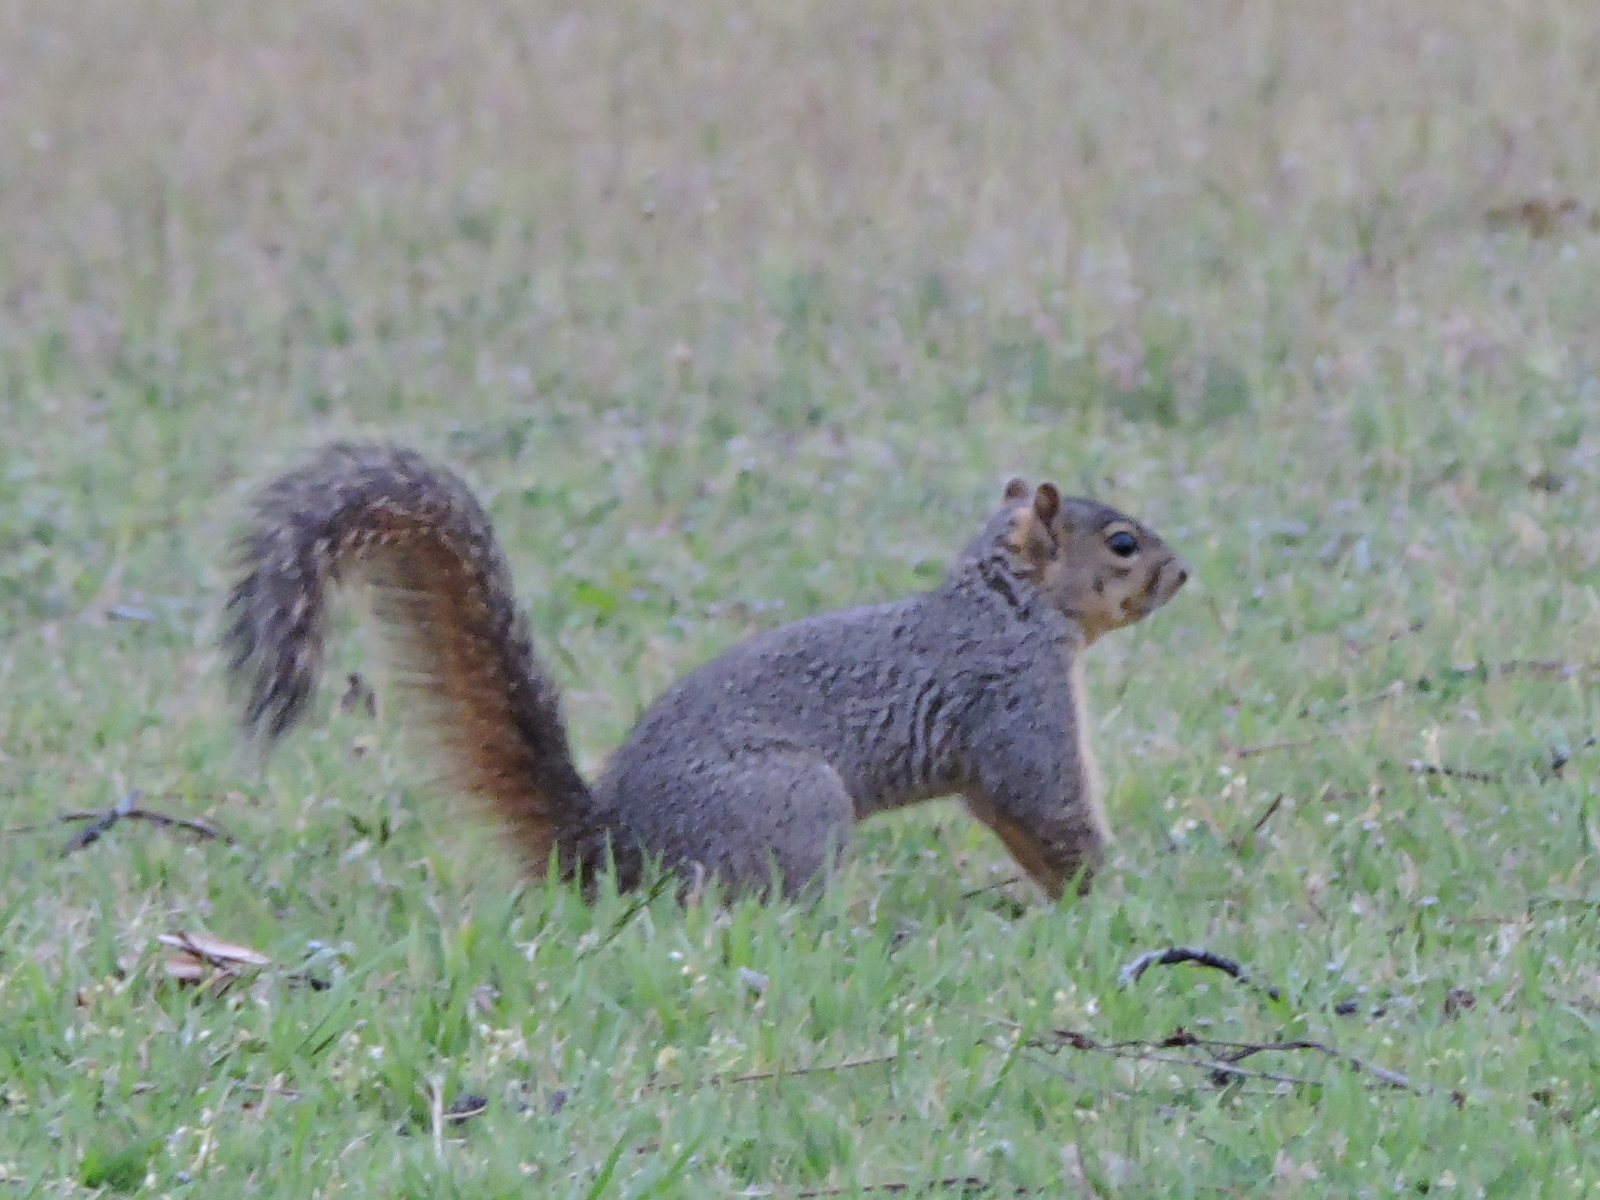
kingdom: Animalia
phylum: Chordata
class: Mammalia
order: Rodentia
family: Sciuridae
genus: Sciurus
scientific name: Sciurus niger
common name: Fox squirrel
